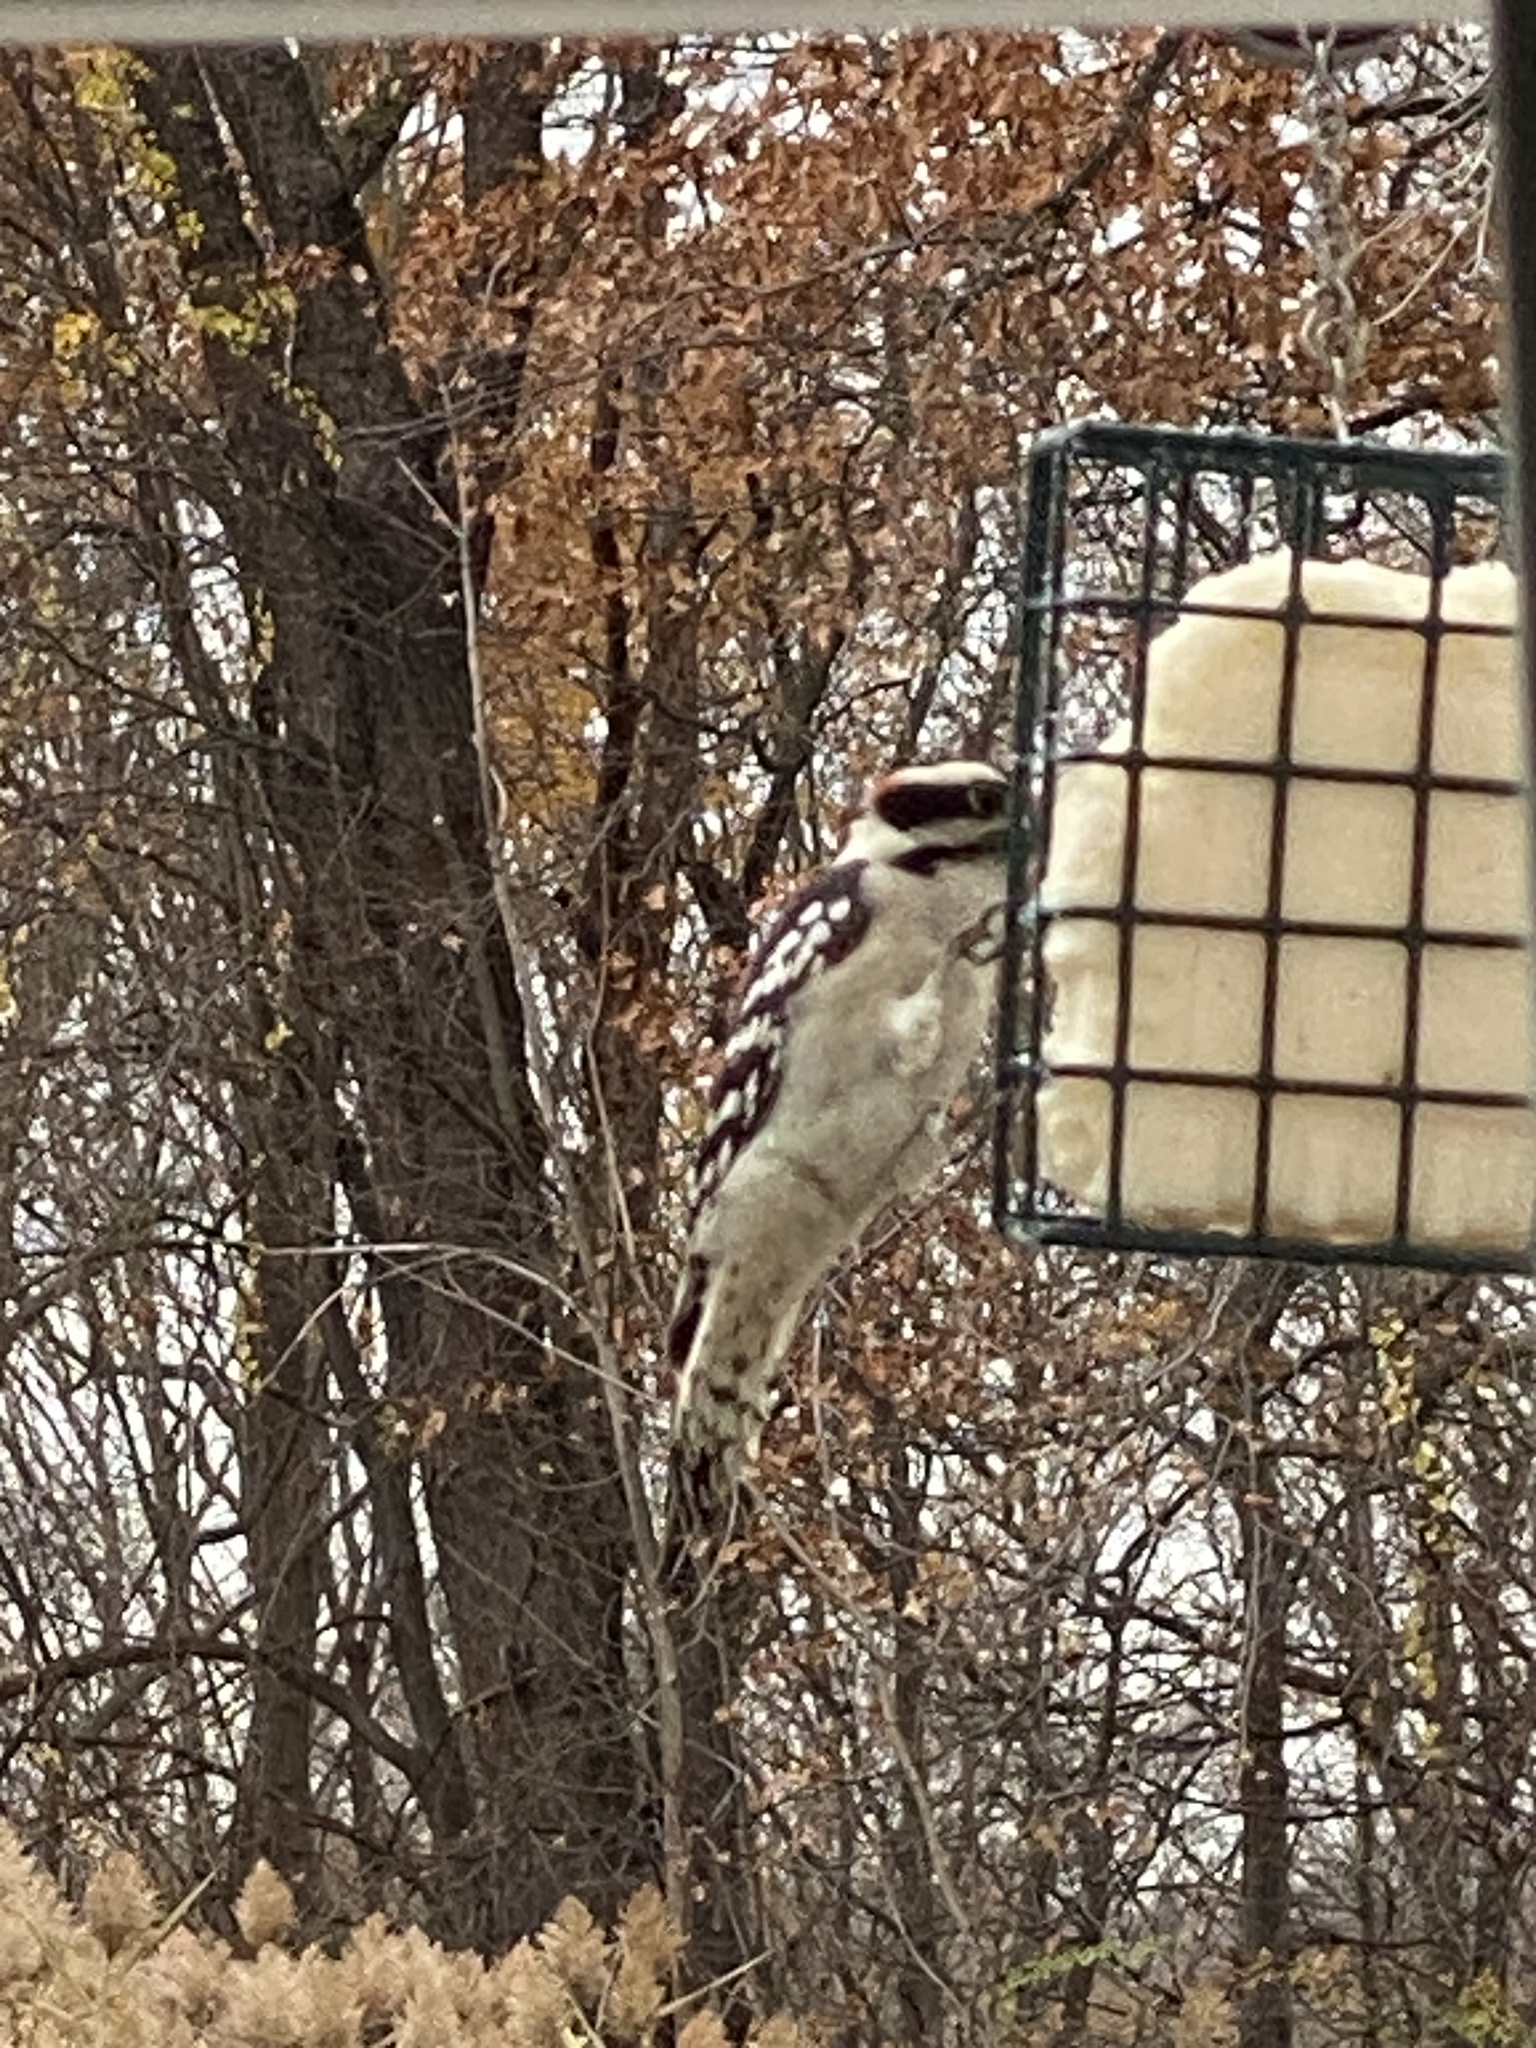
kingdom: Animalia
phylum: Chordata
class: Aves
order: Piciformes
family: Picidae
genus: Dryobates
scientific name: Dryobates pubescens
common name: Downy woodpecker
